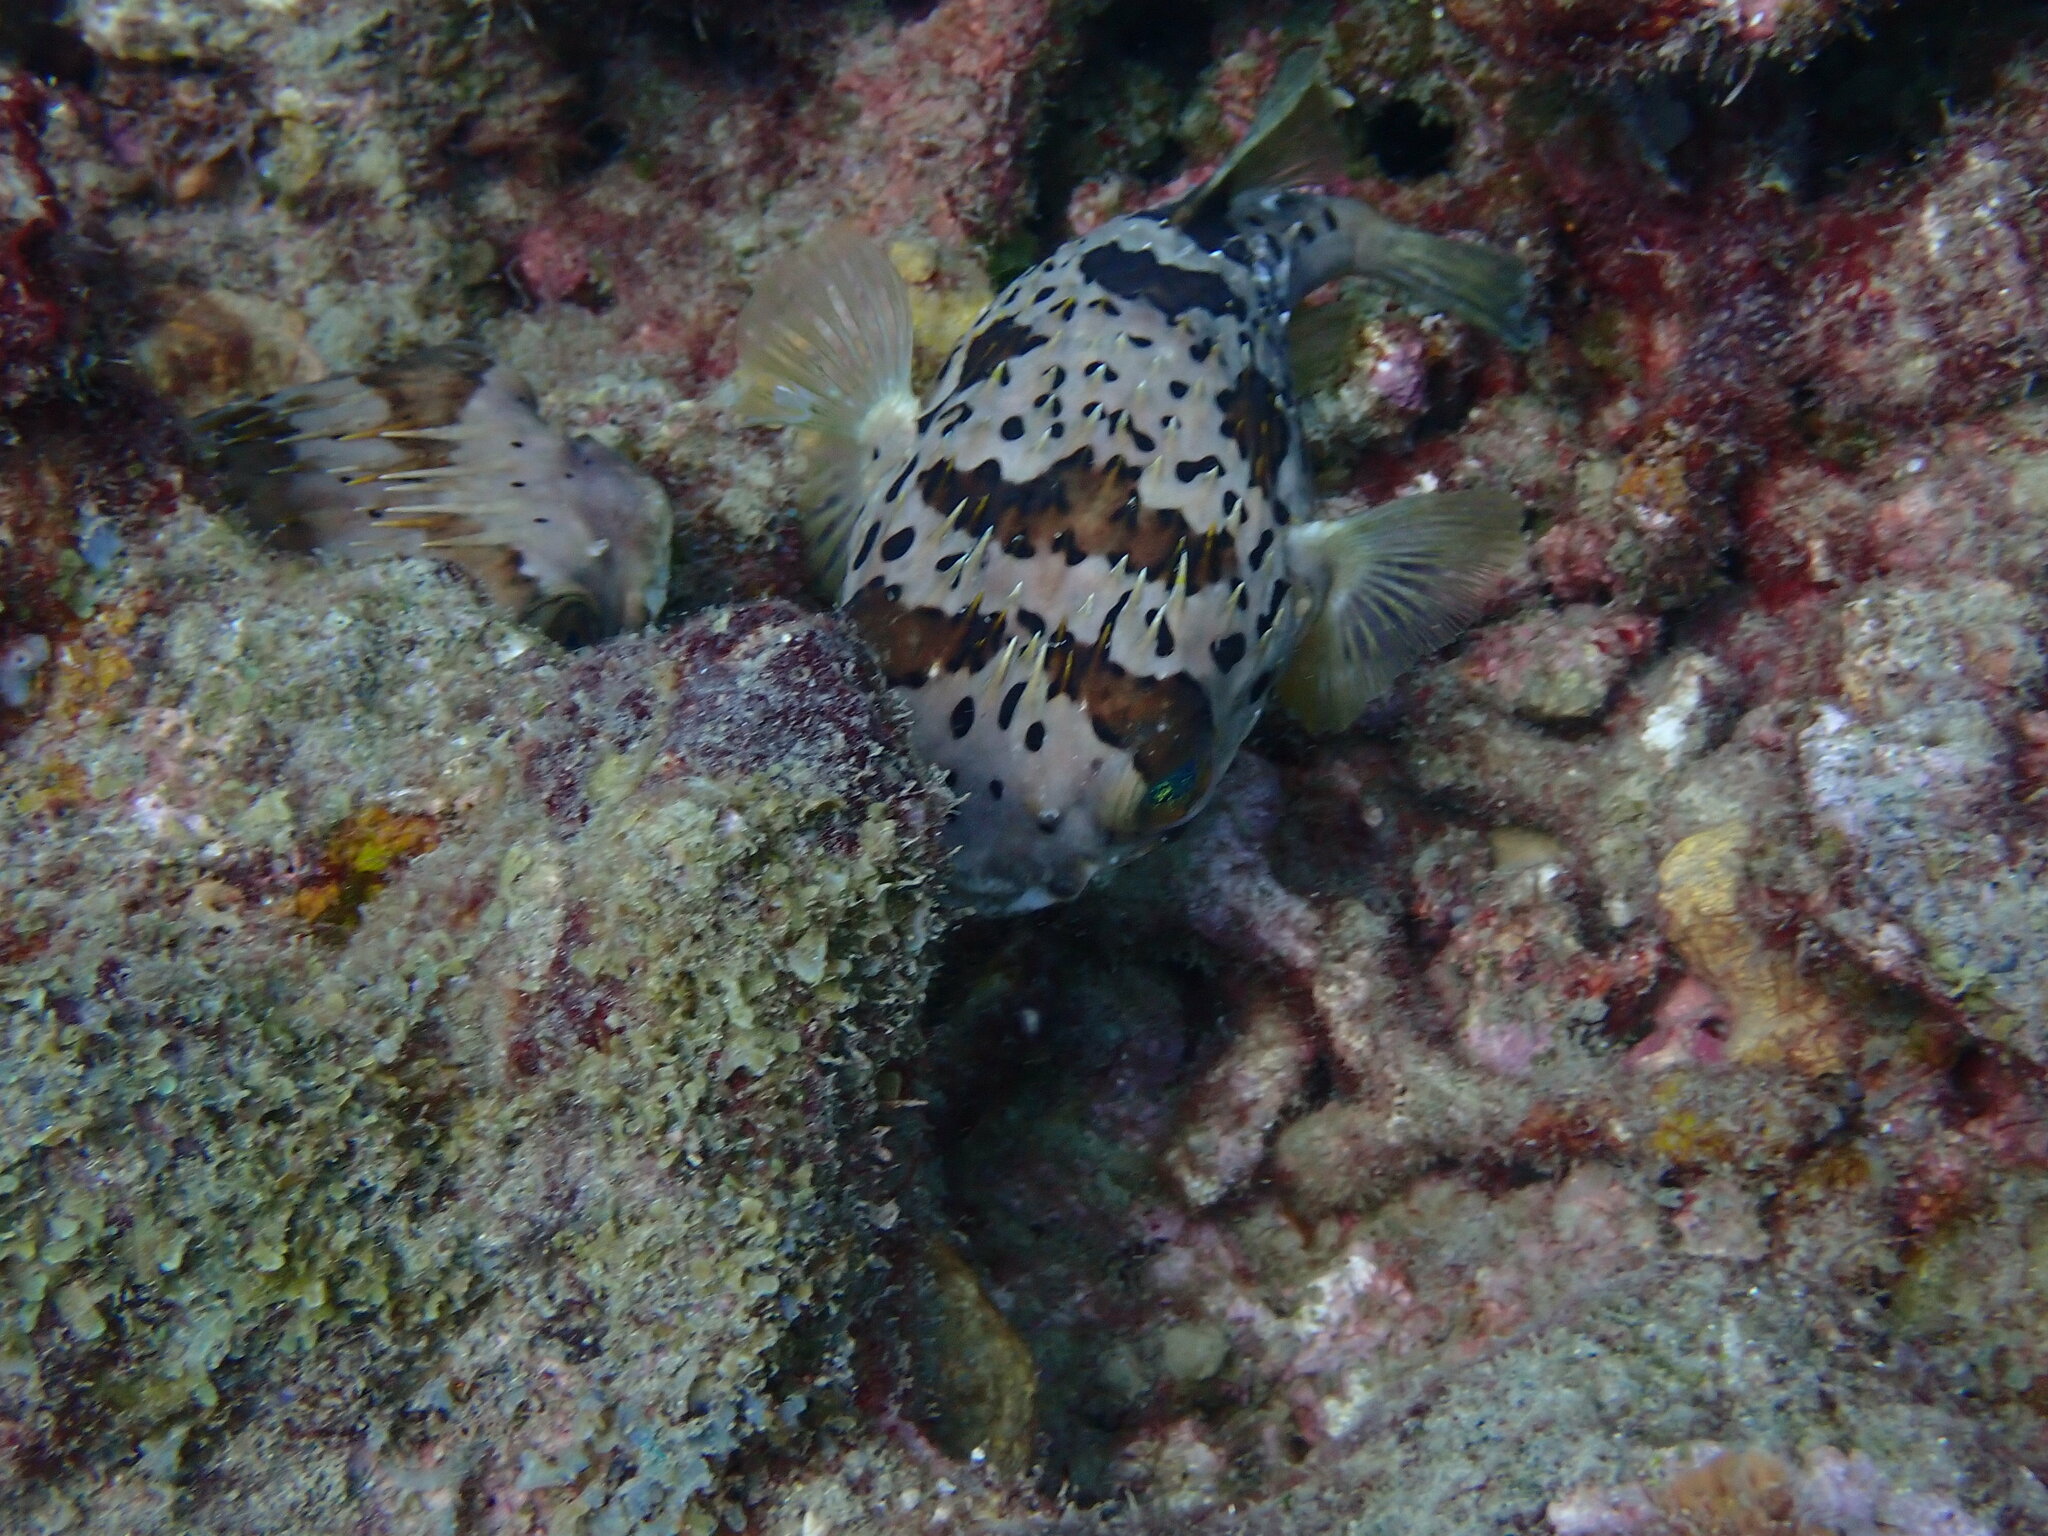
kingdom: Animalia
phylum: Chordata
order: Tetraodontiformes
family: Diodontidae
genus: Diodon
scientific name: Diodon holocanthus
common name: Balloonfish
